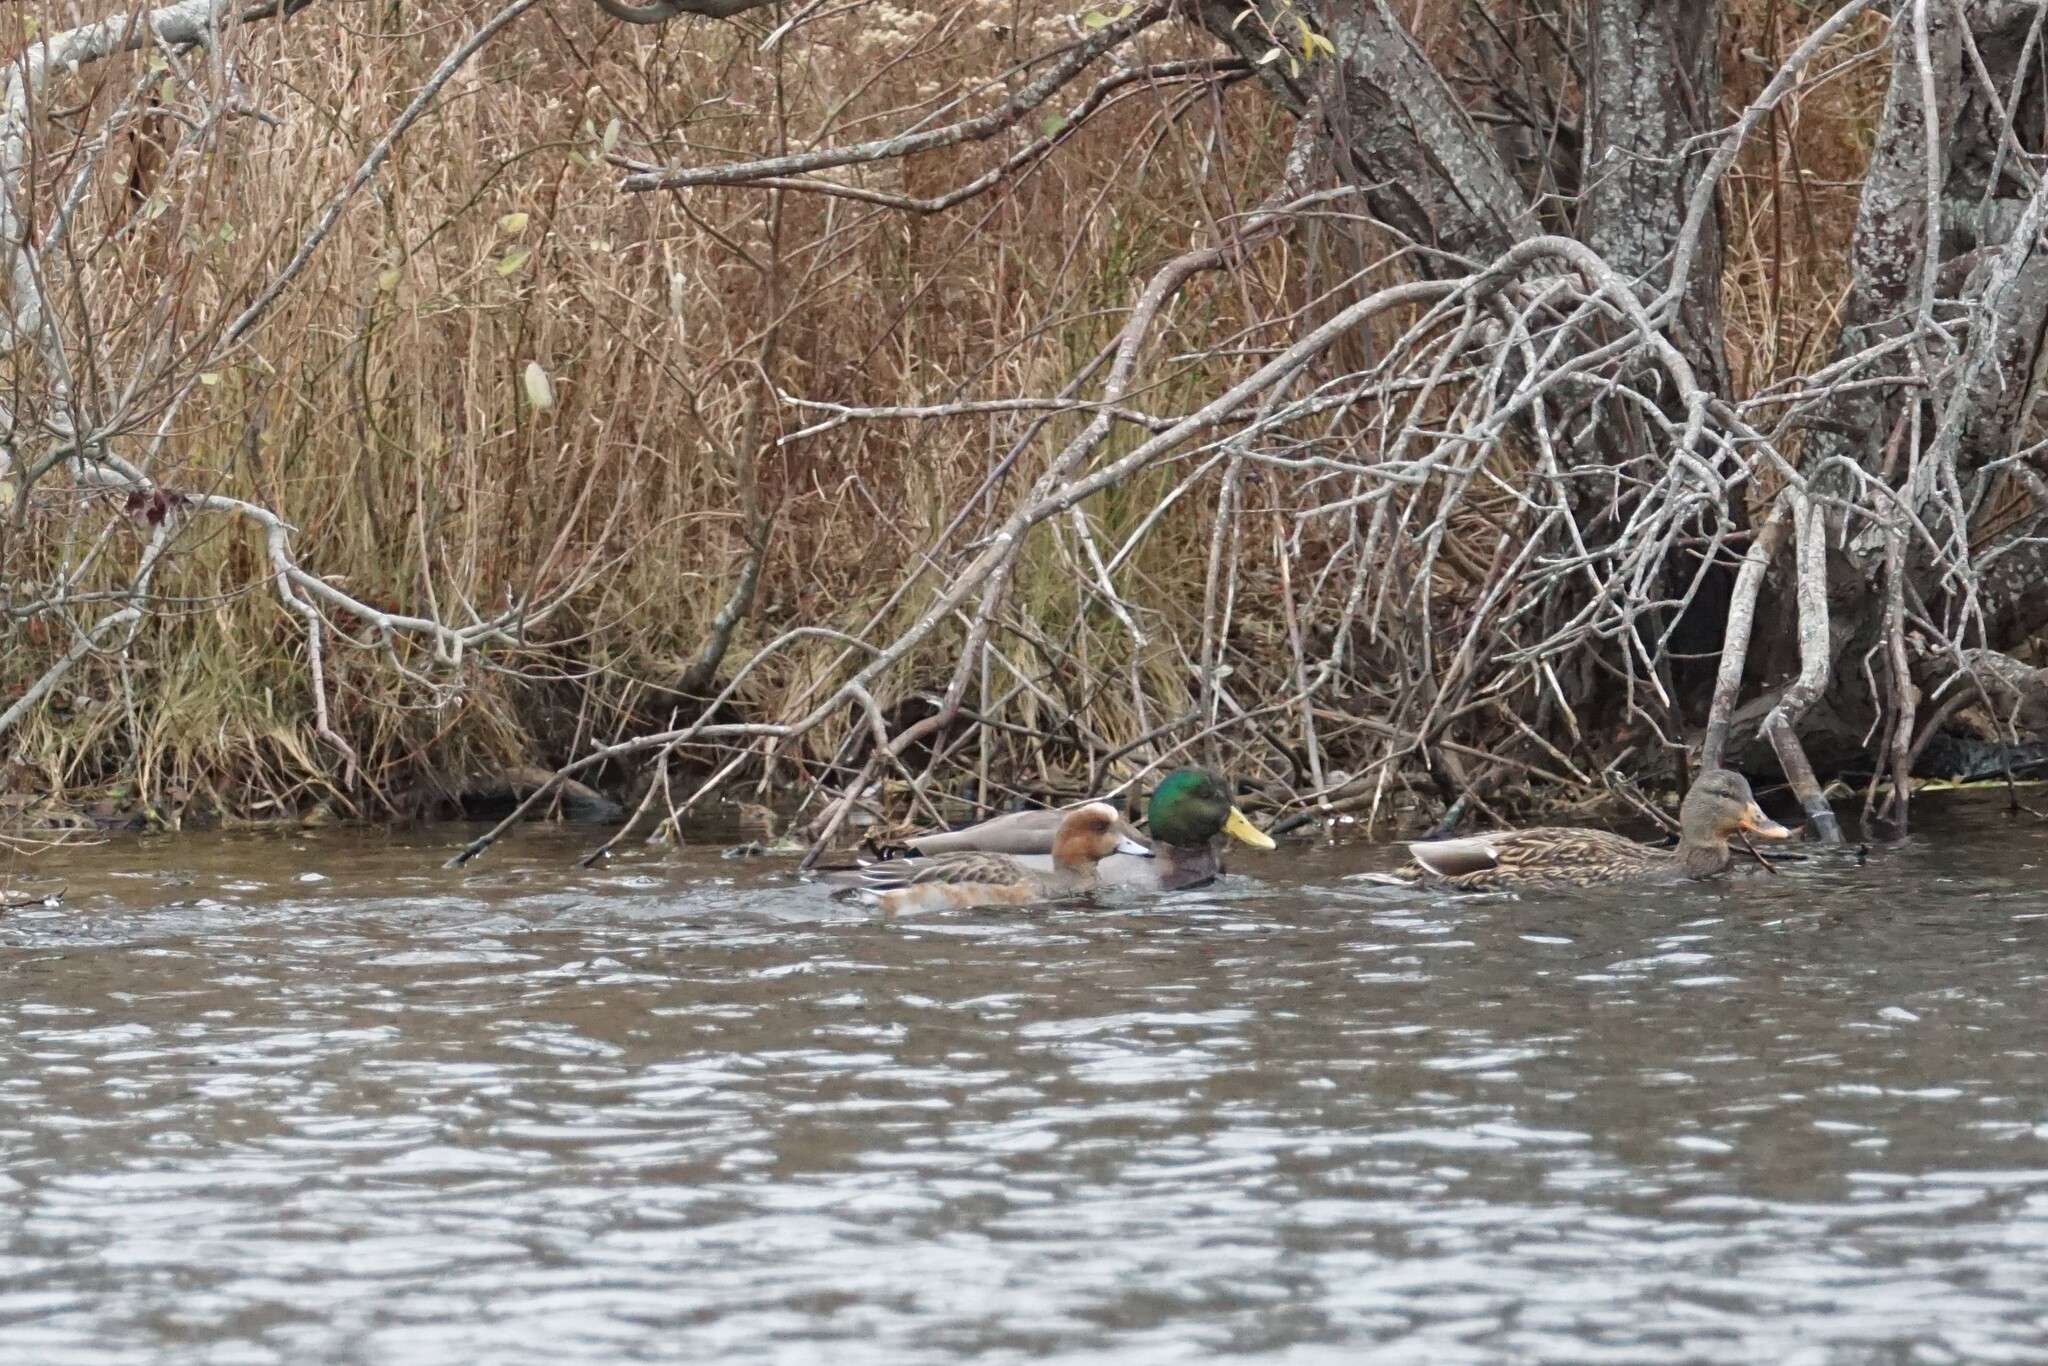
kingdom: Animalia
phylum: Chordata
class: Aves
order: Anseriformes
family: Anatidae
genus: Mareca
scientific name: Mareca penelope
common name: Eurasian wigeon
